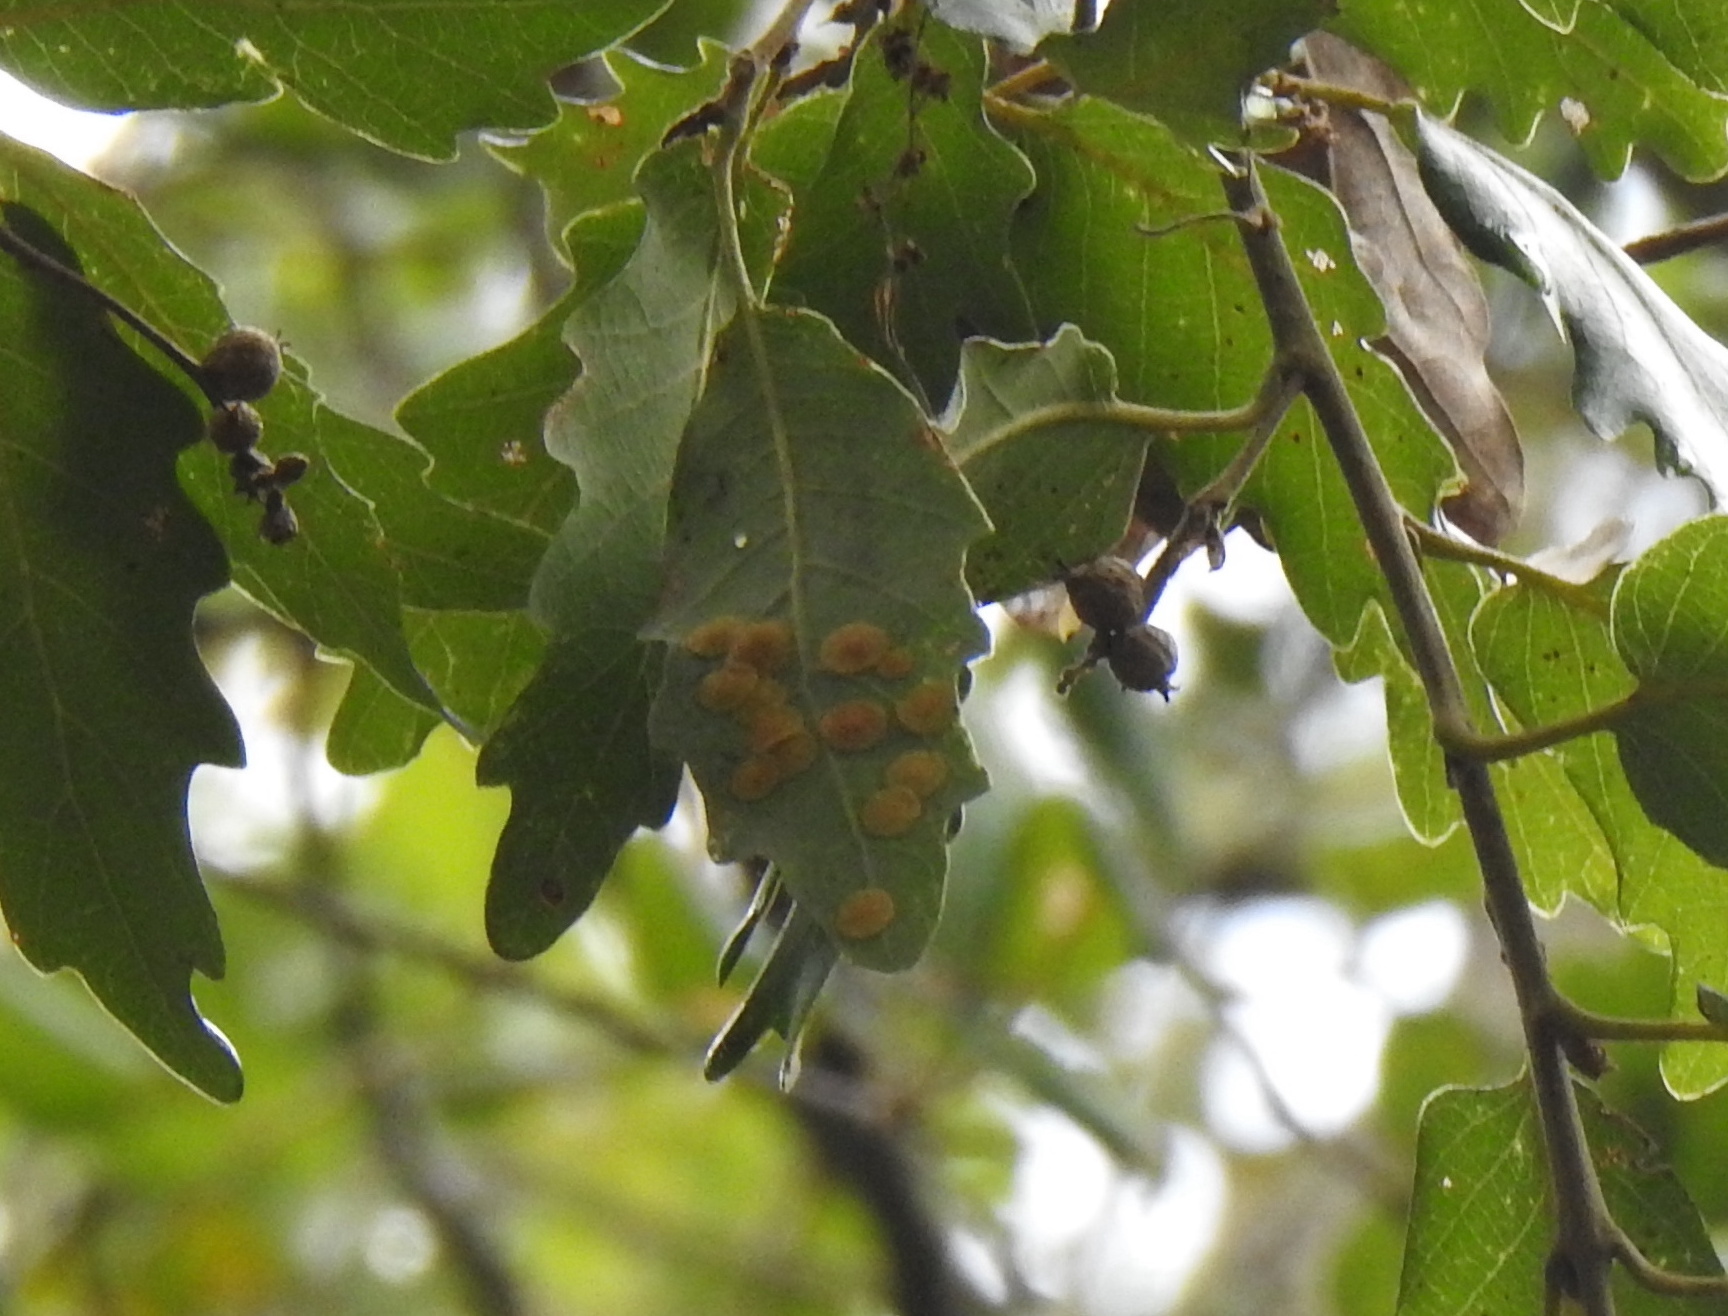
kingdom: Animalia
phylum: Arthropoda
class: Insecta
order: Hymenoptera
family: Cynipidae
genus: Neuroterus
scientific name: Neuroterus quercusbaccarum
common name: Common spangle gall
